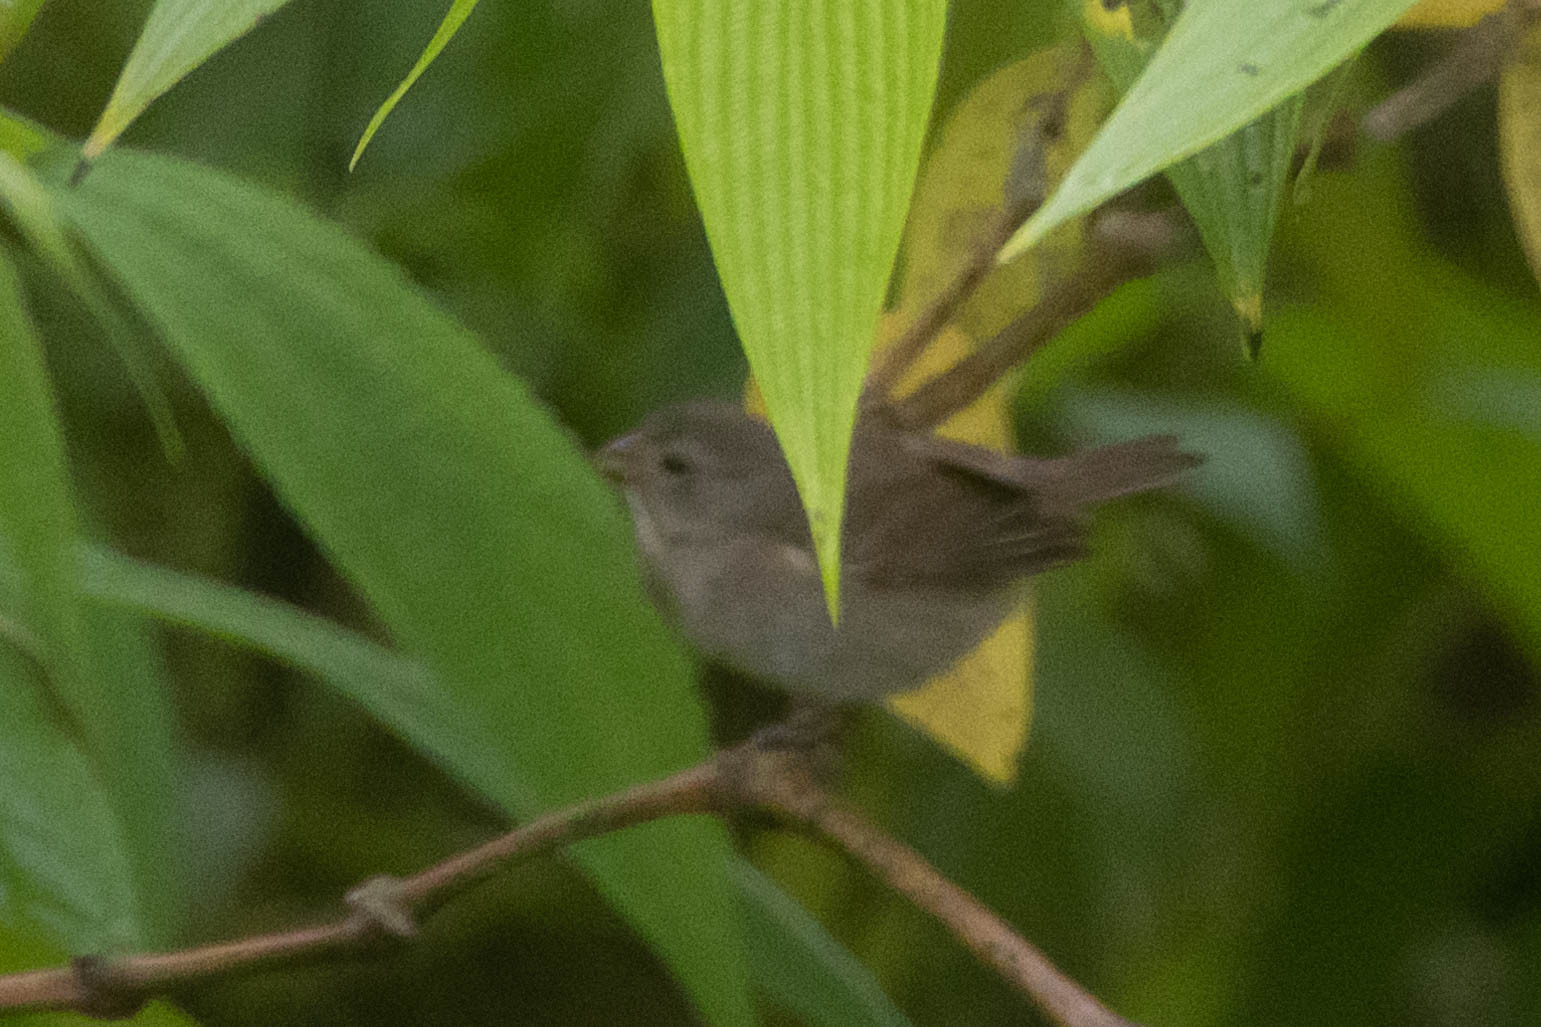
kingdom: Animalia
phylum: Chordata
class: Aves
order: Passeriformes
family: Thraupidae
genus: Asemospiza
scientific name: Asemospiza obscura
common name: Dull-colored grassquit
